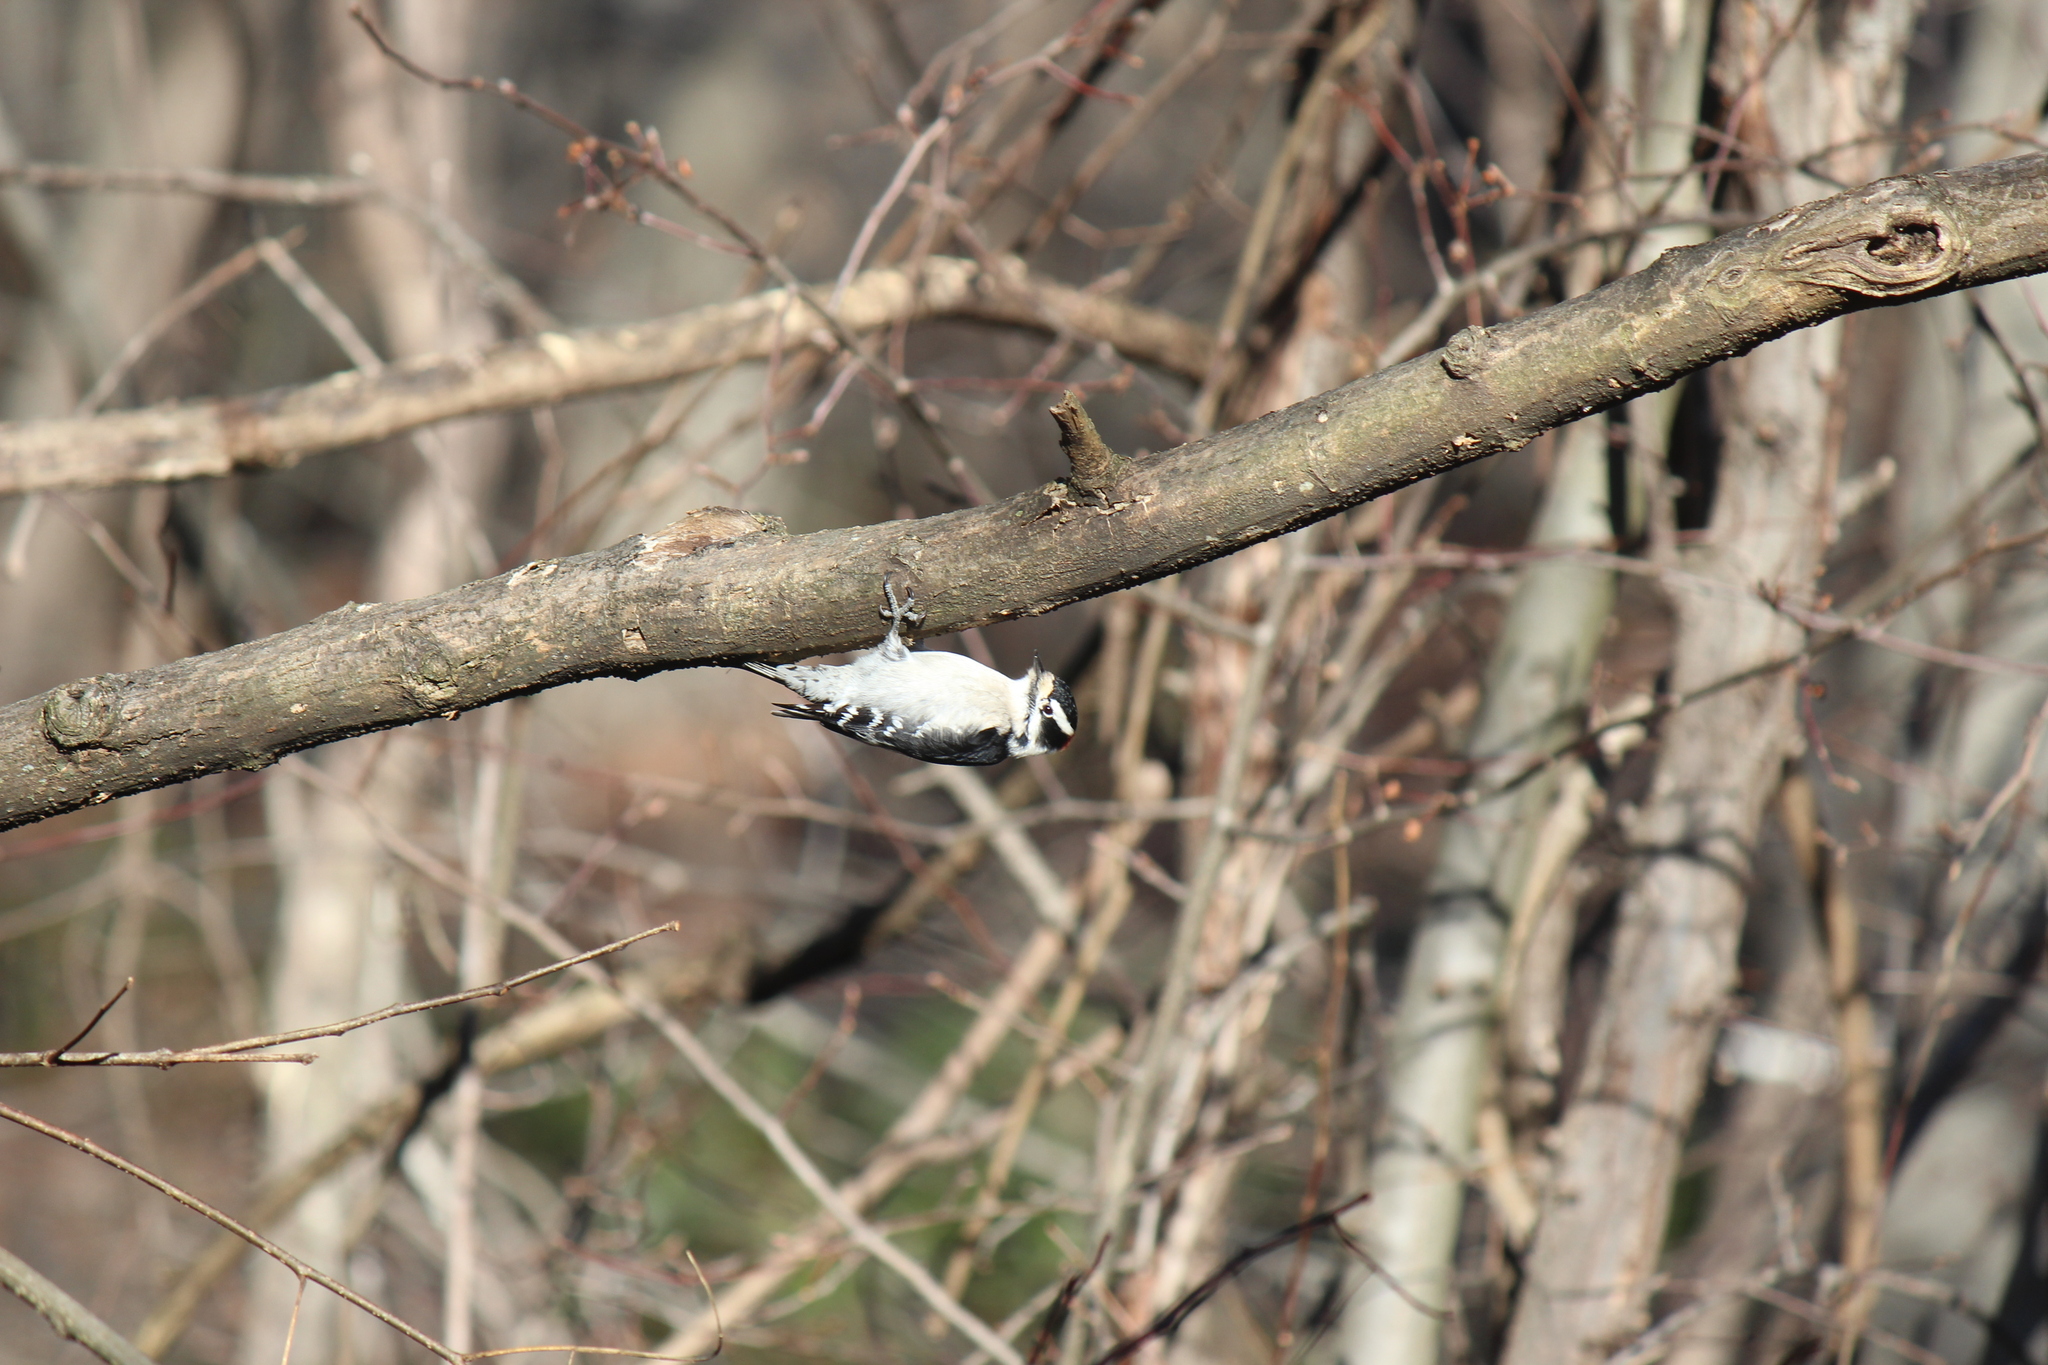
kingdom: Animalia
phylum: Chordata
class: Aves
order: Piciformes
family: Picidae
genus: Dryobates
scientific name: Dryobates pubescens
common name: Downy woodpecker
